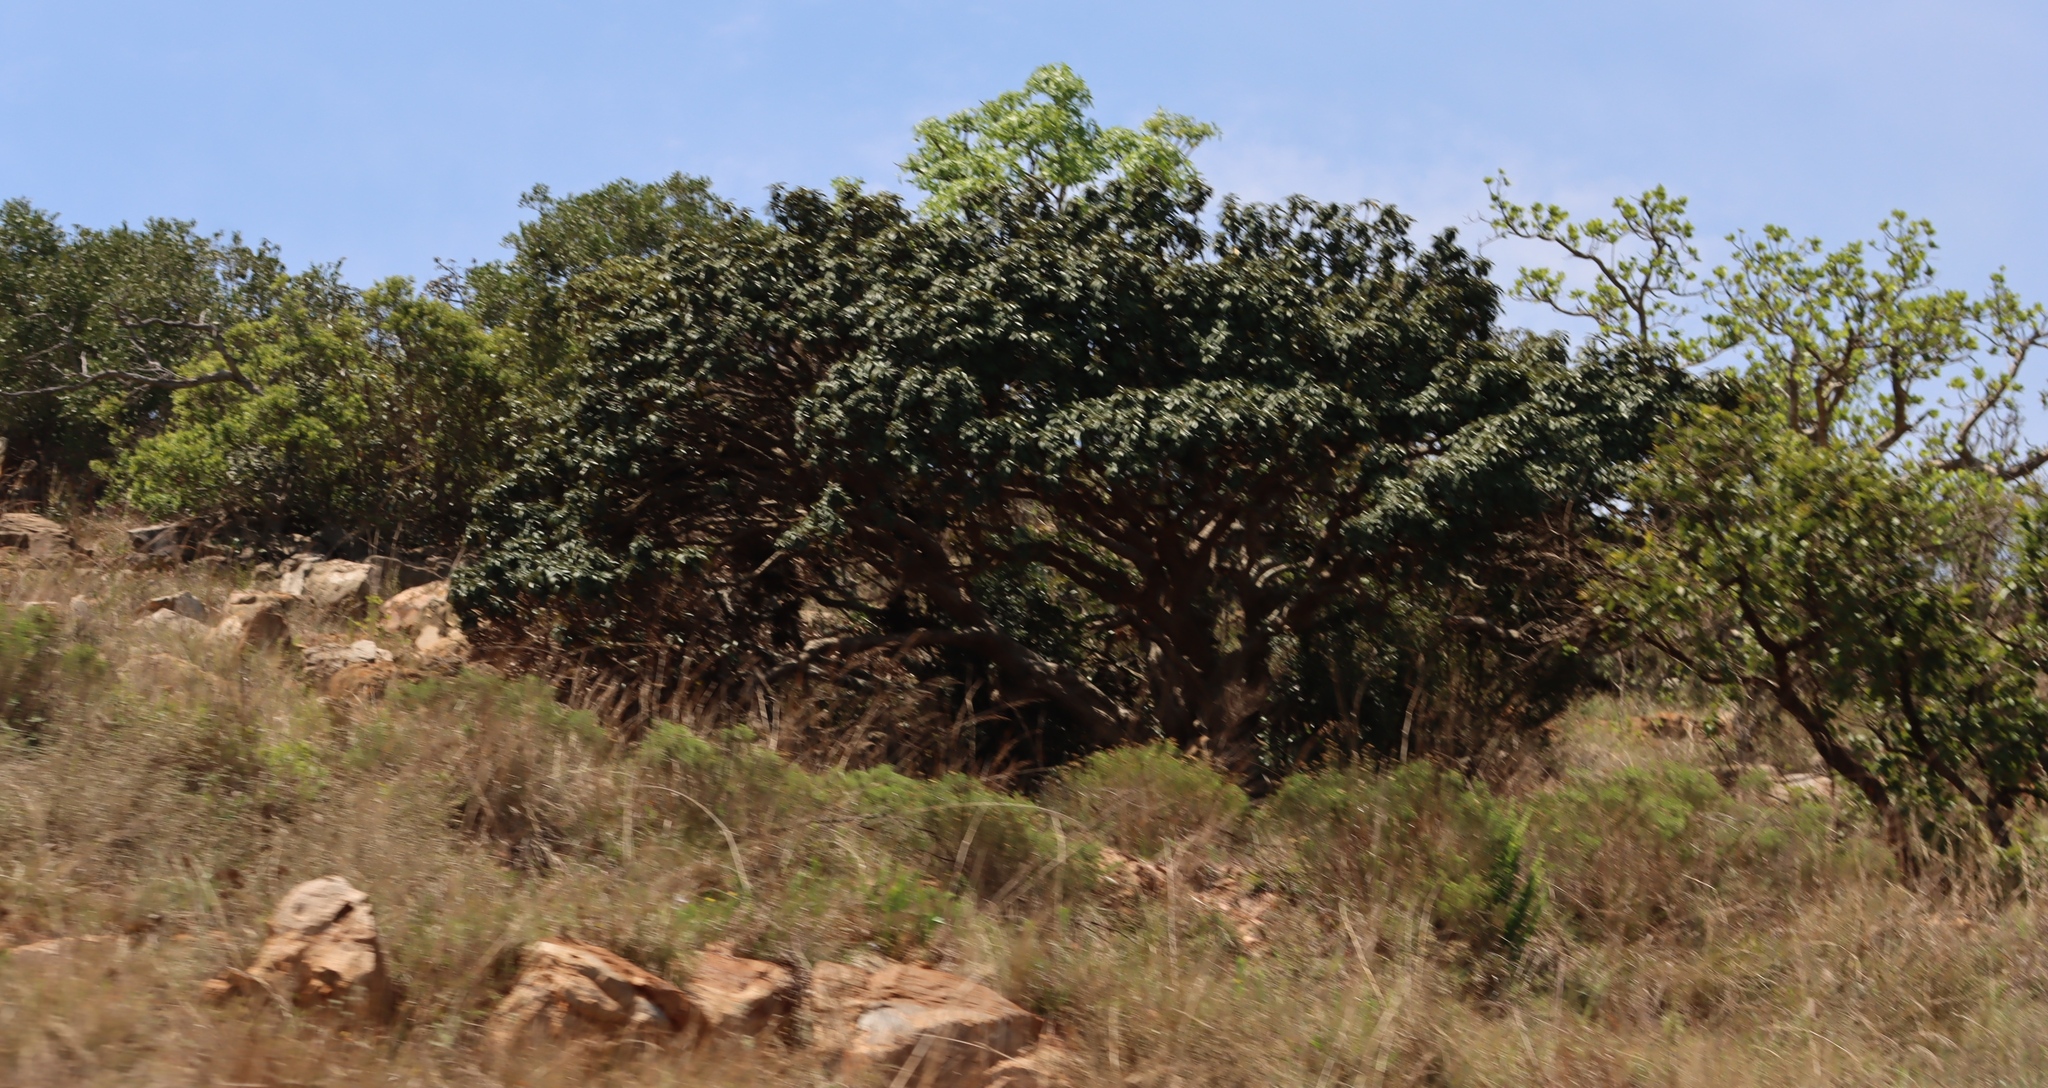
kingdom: Plantae
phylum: Tracheophyta
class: Magnoliopsida
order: Ericales
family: Sapotaceae
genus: Englerophytum
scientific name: Englerophytum magalismontanum
